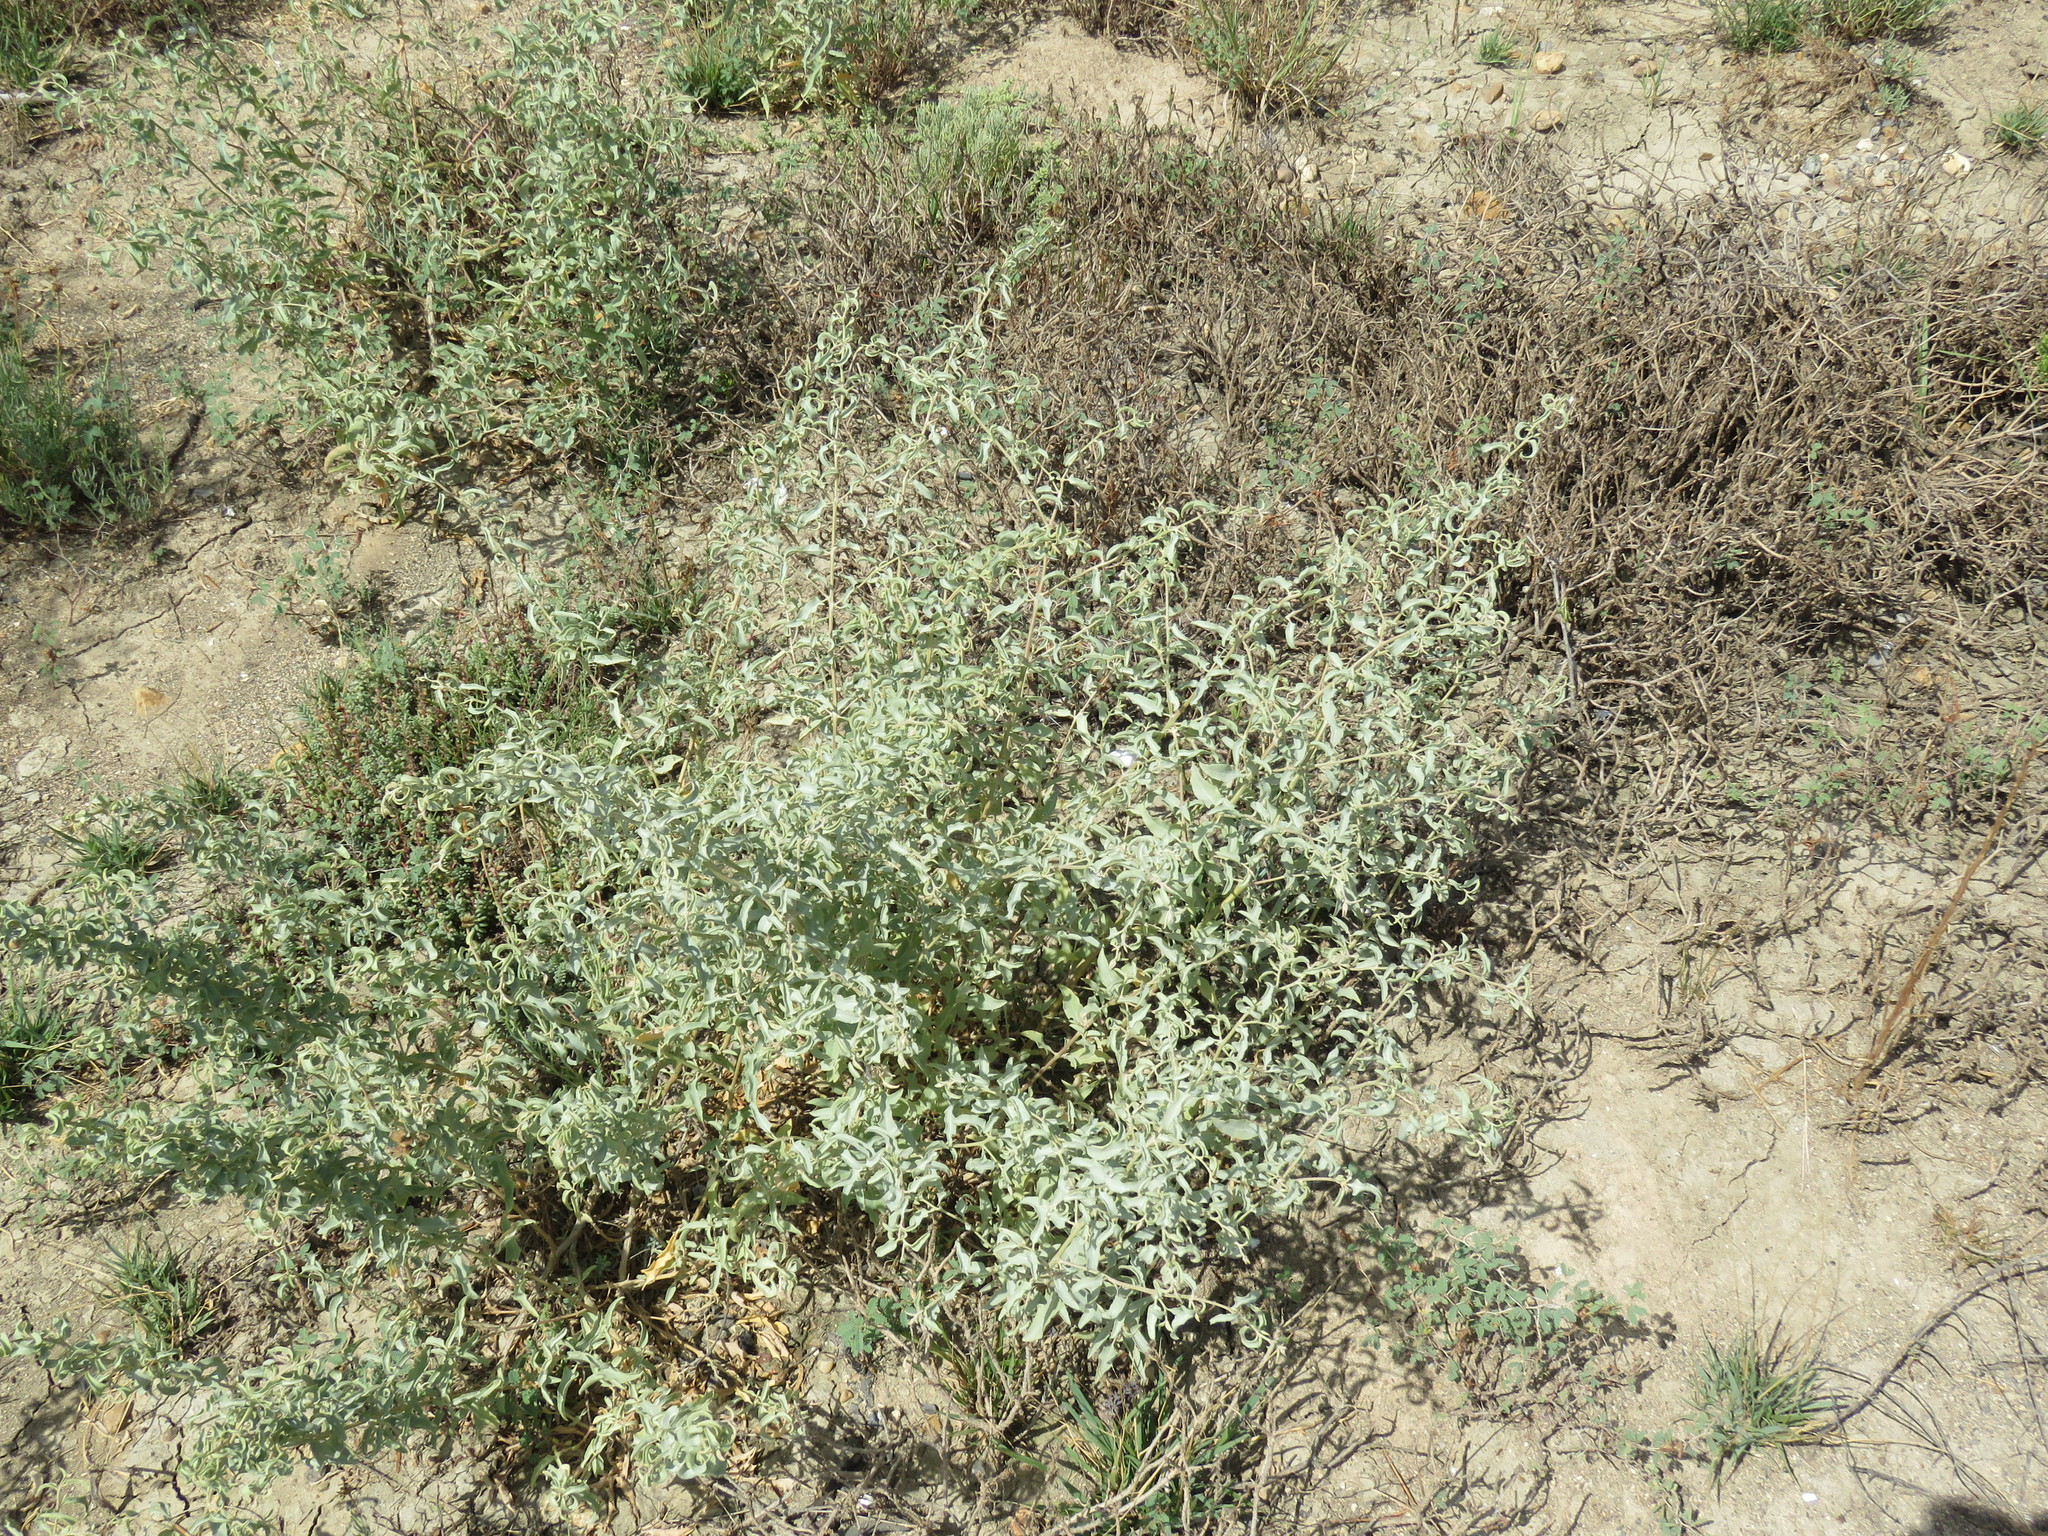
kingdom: Plantae
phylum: Tracheophyta
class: Magnoliopsida
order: Caryophyllales
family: Amaranthaceae
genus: Atriplex
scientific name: Atriplex acanthocarpa
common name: Burscale
